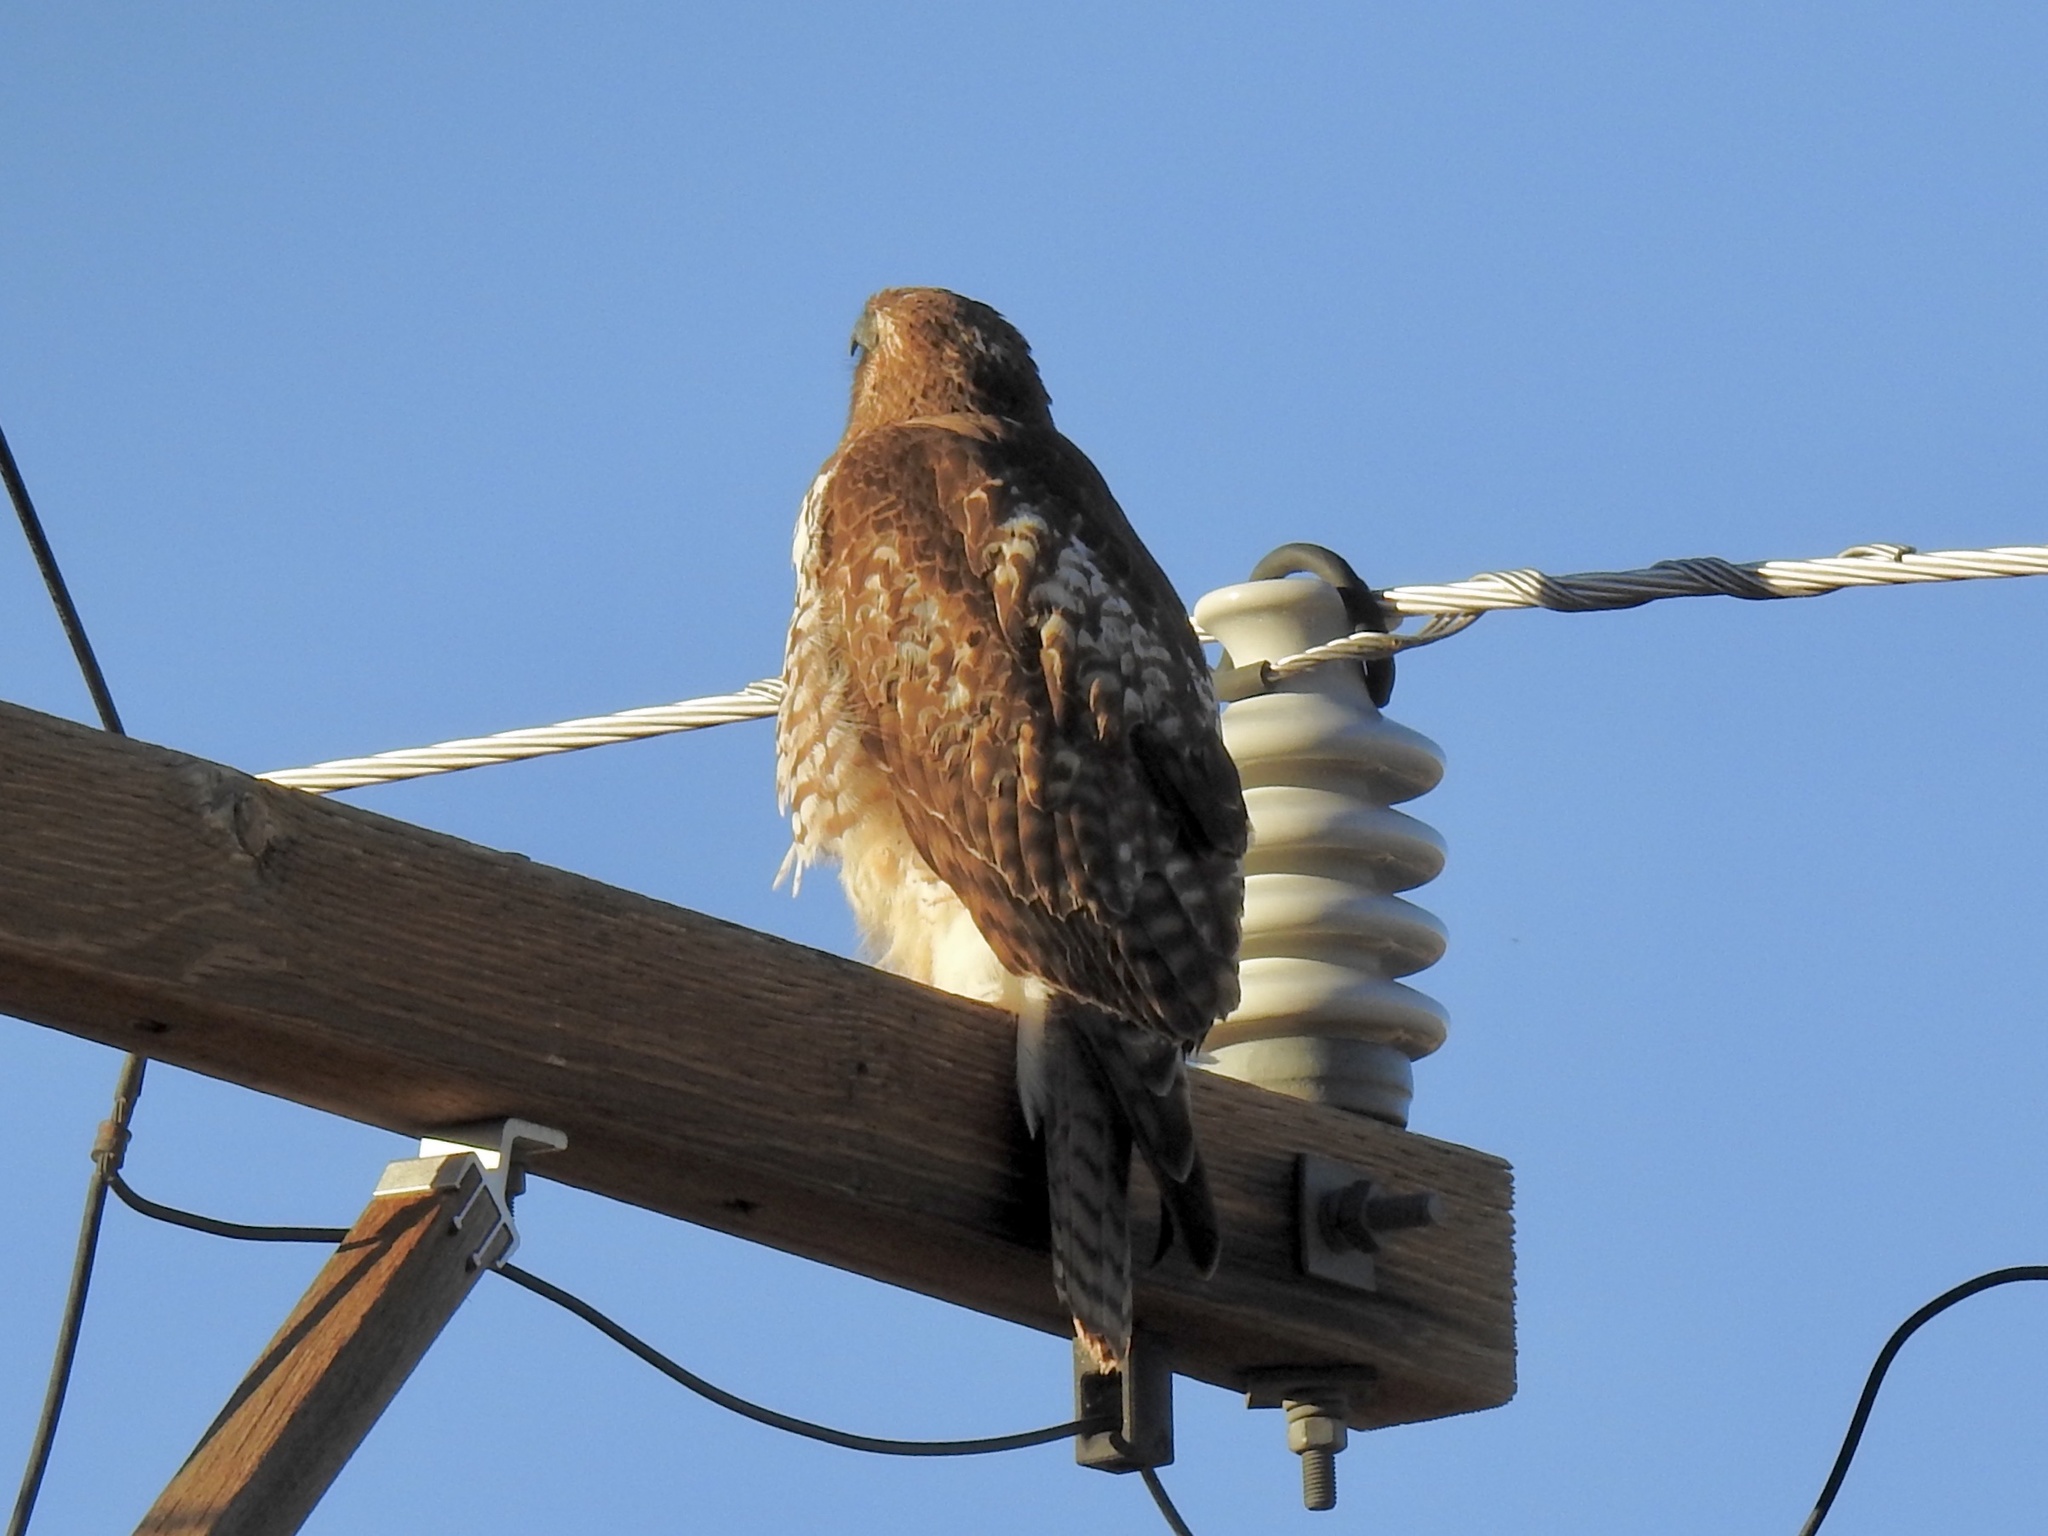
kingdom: Animalia
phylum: Chordata
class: Aves
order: Accipitriformes
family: Accipitridae
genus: Buteo
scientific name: Buteo jamaicensis
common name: Red-tailed hawk
